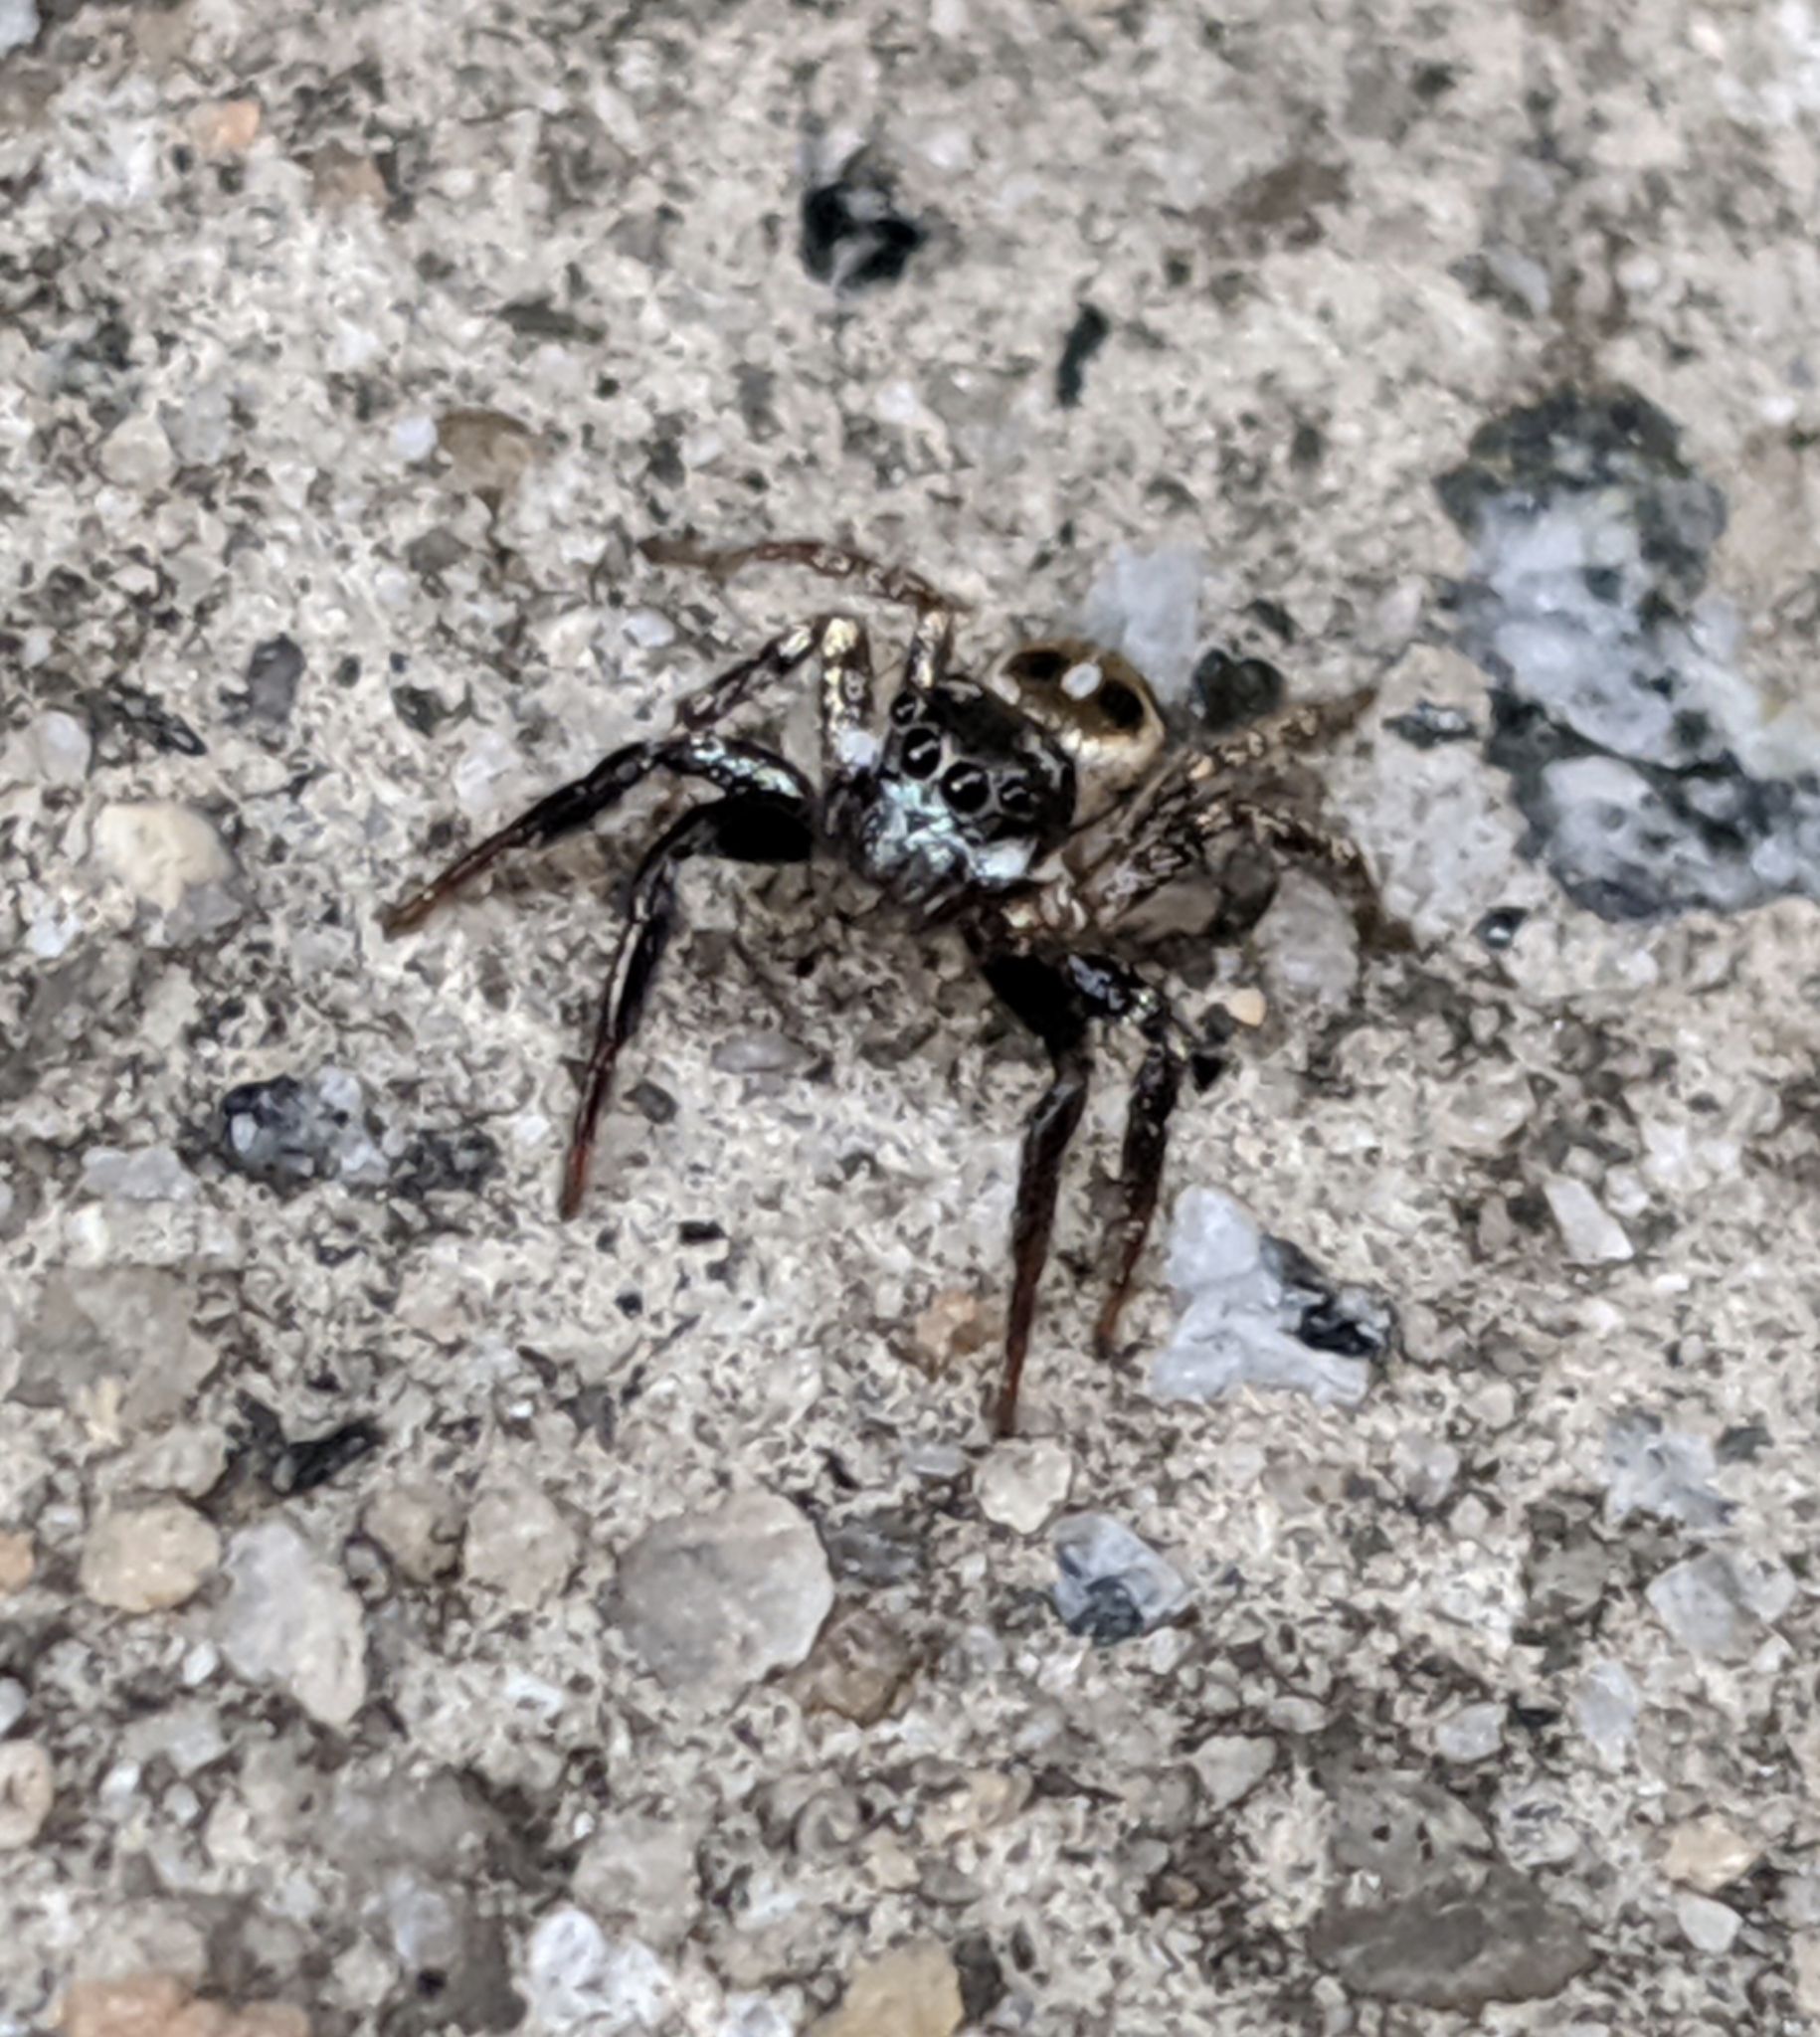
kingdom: Animalia
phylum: Arthropoda
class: Arachnida
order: Araneae
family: Salticidae
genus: Anasaitis
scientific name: Anasaitis canosa
